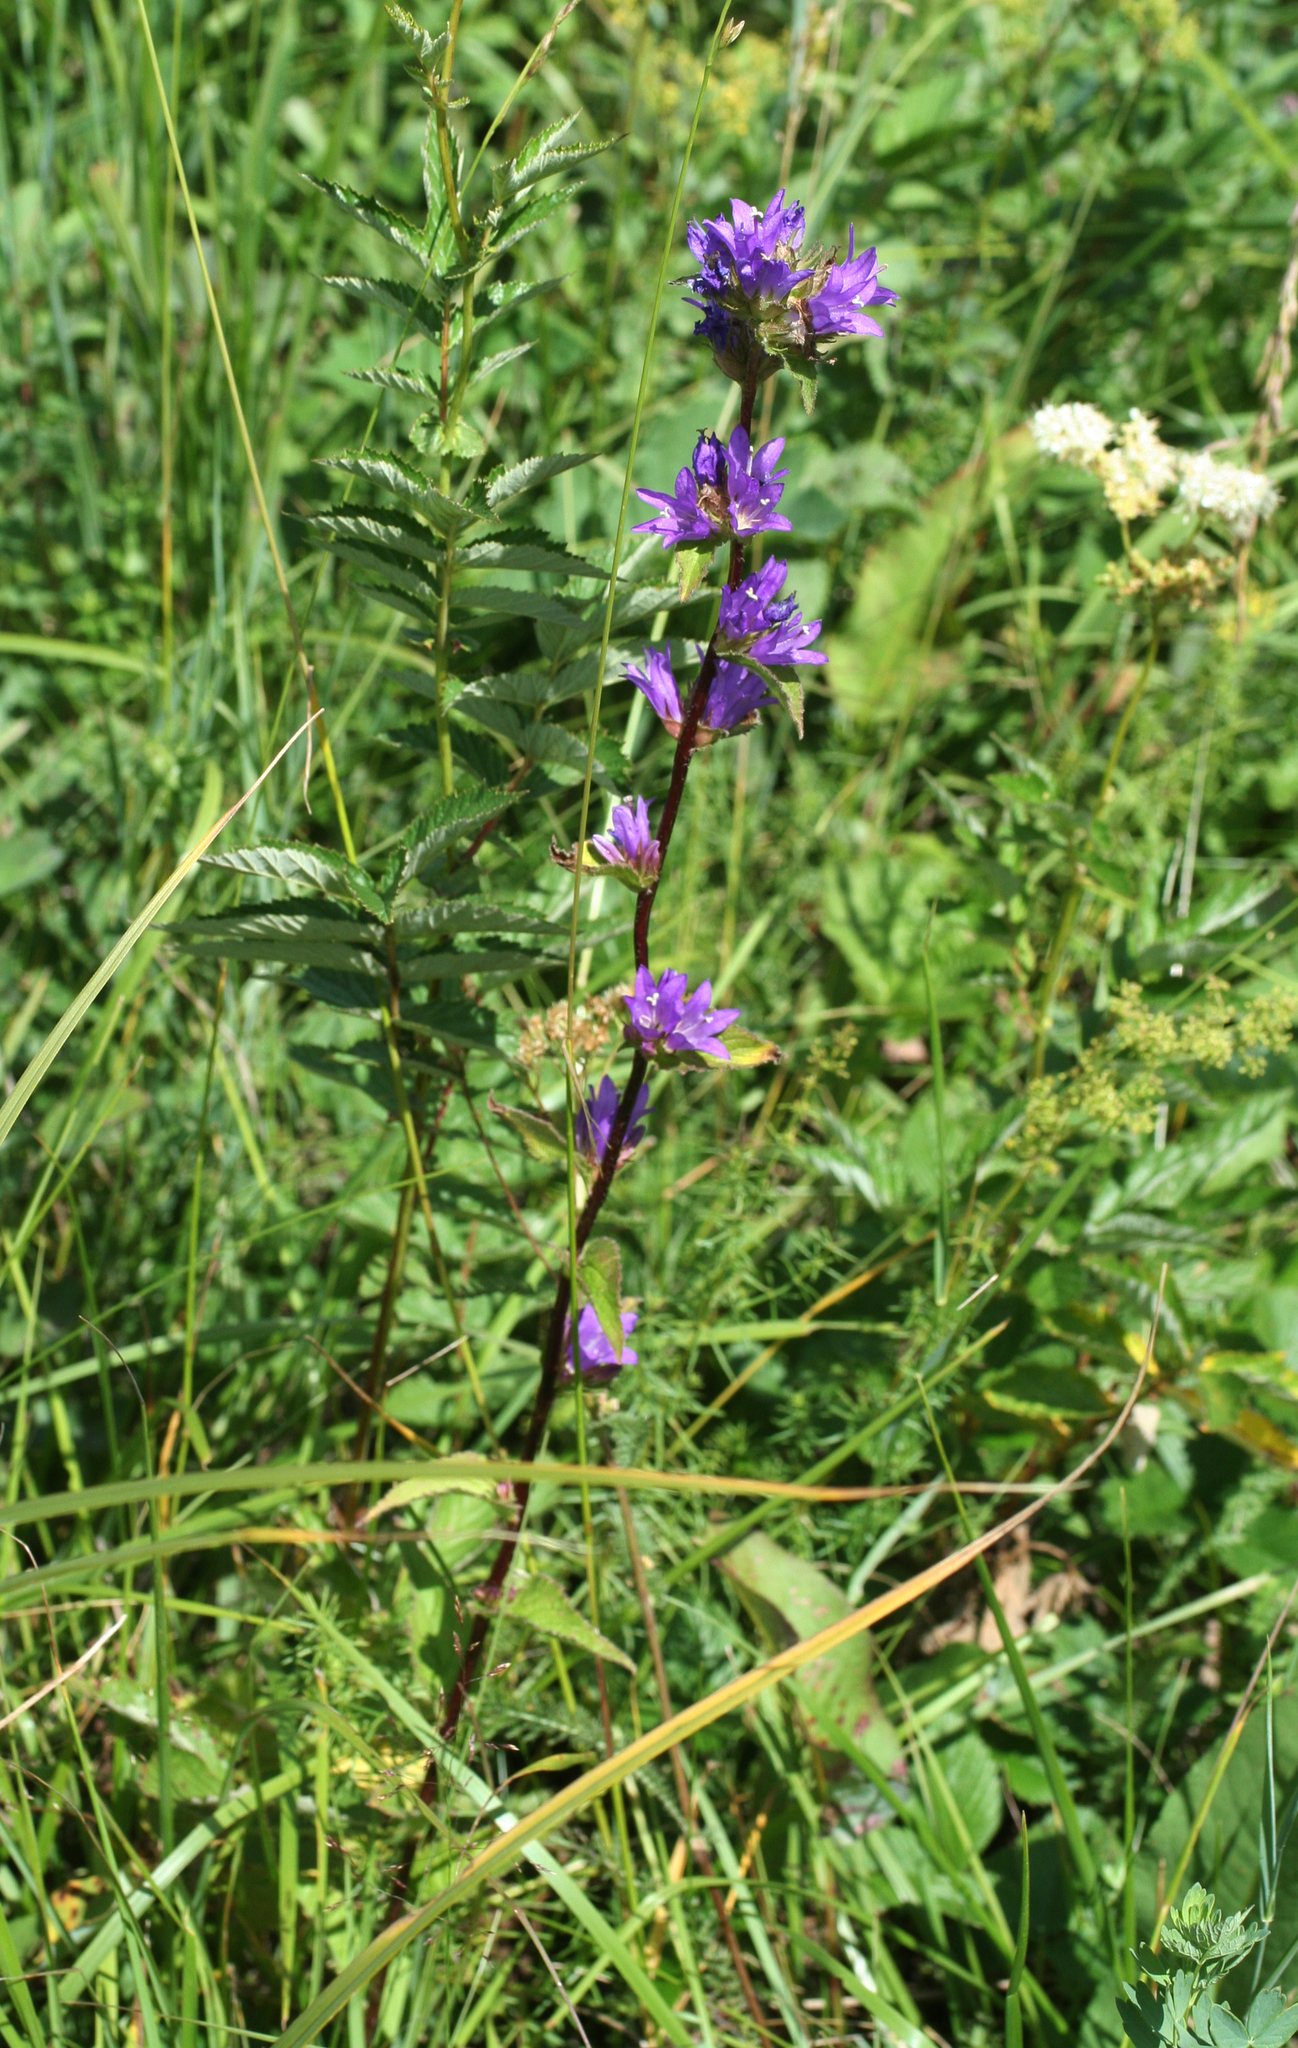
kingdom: Plantae
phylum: Tracheophyta
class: Magnoliopsida
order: Asterales
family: Campanulaceae
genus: Campanula
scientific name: Campanula glomerata
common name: Clustered bellflower
